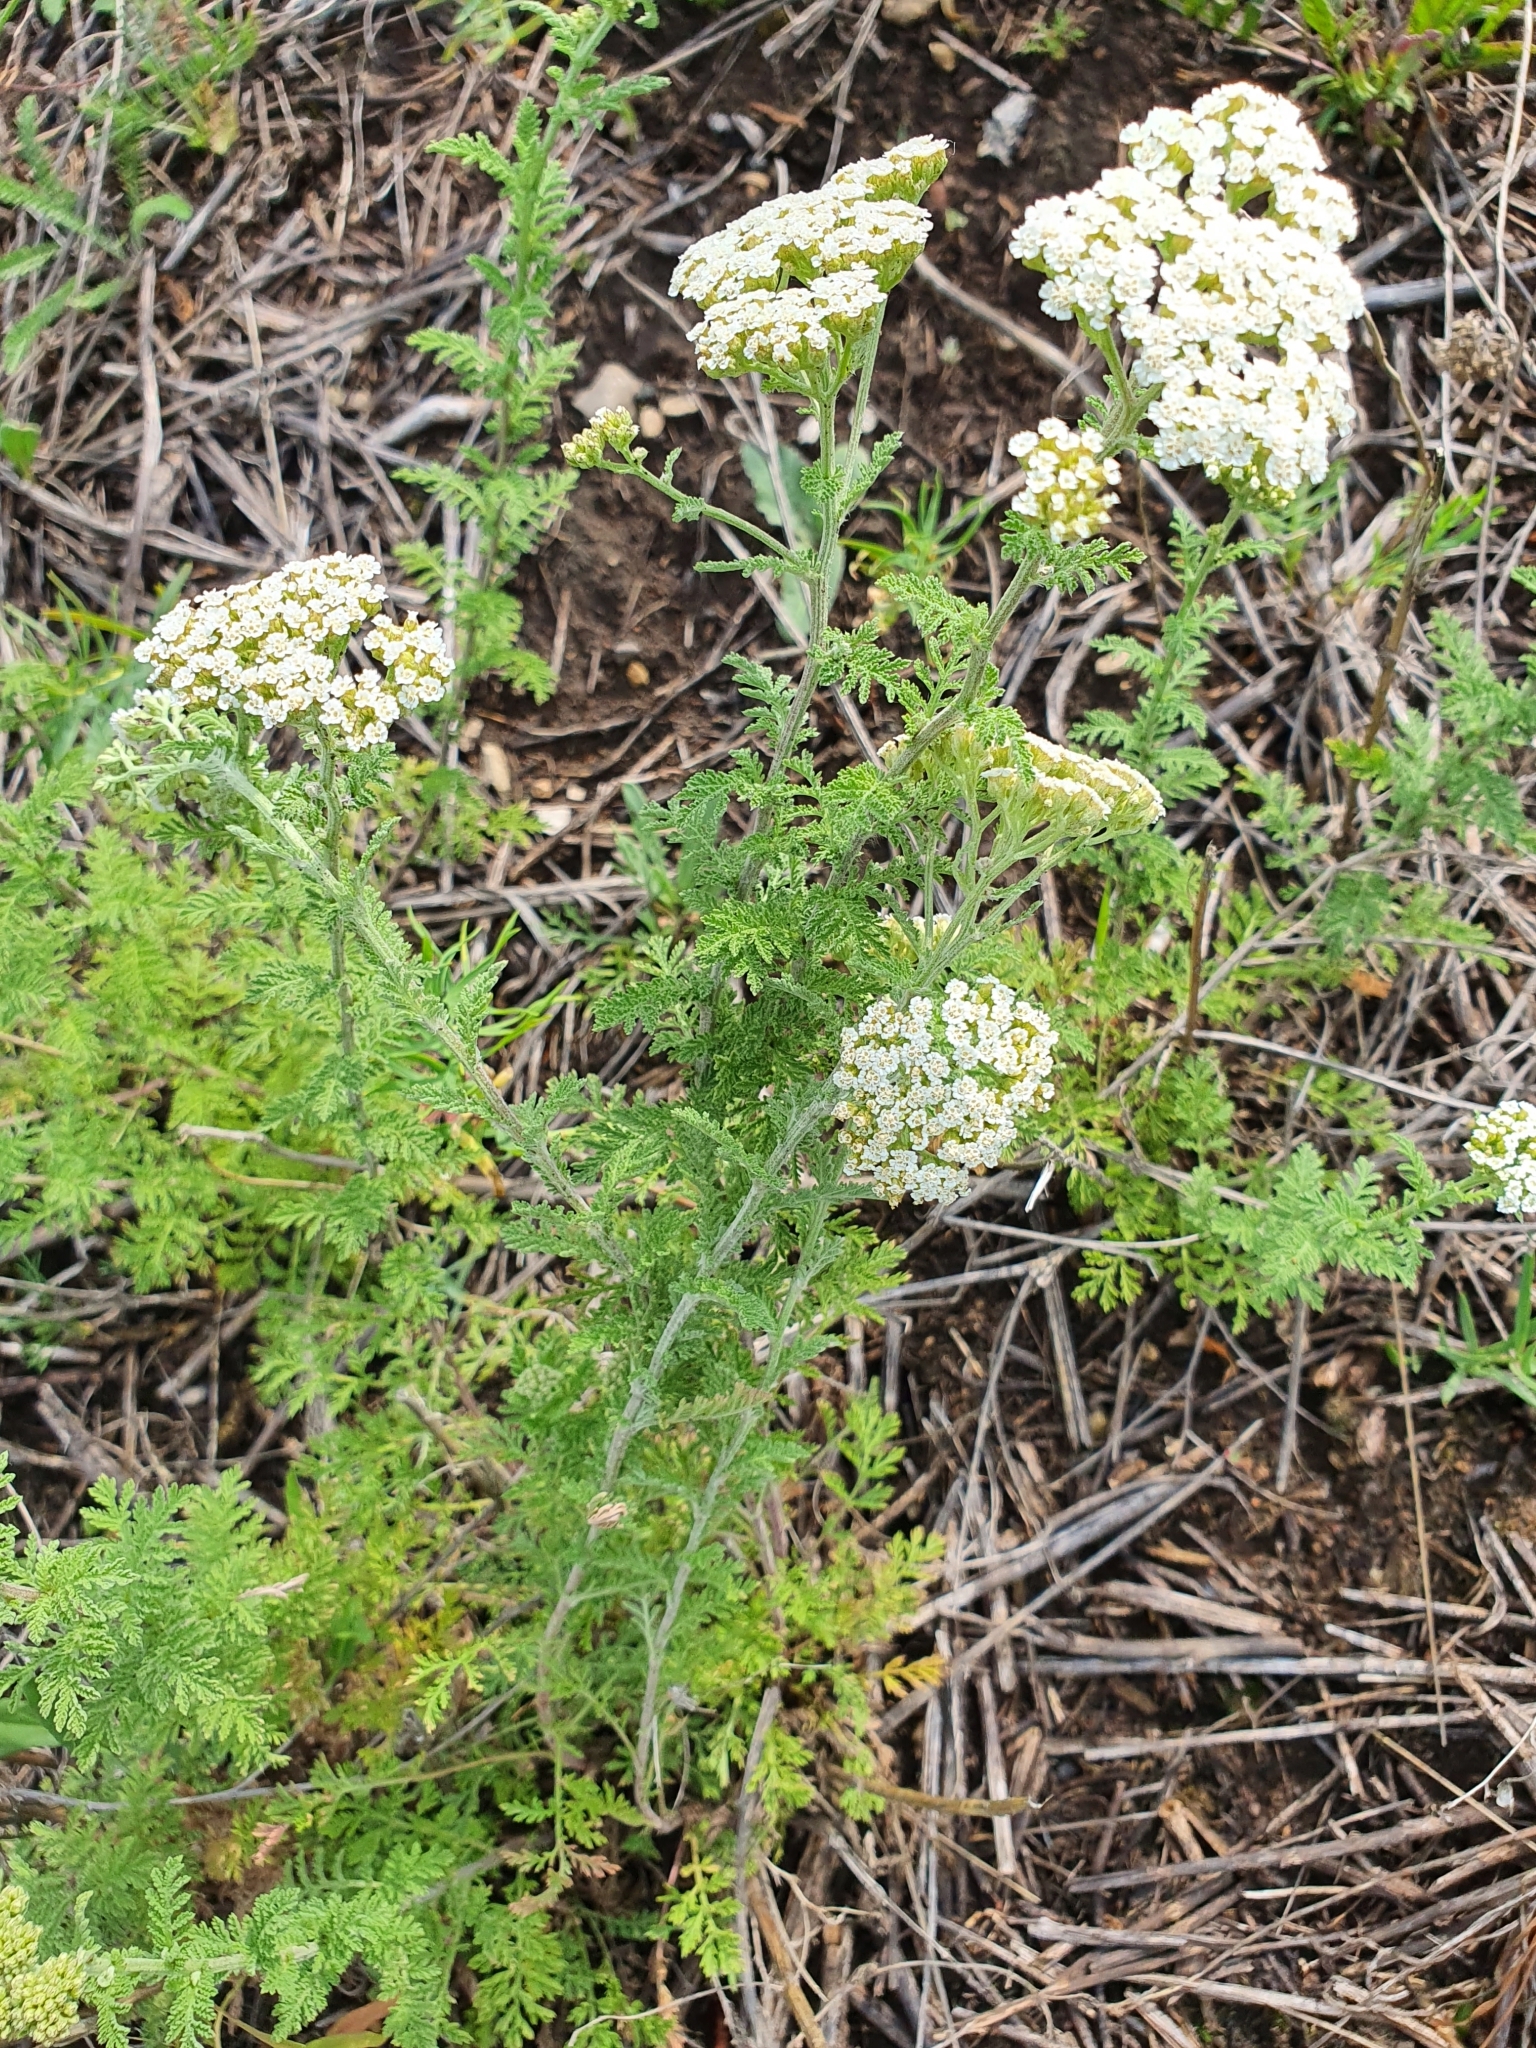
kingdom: Plantae
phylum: Tracheophyta
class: Magnoliopsida
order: Asterales
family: Asteraceae
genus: Achillea
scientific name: Achillea nobilis
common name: Noble yarrow
